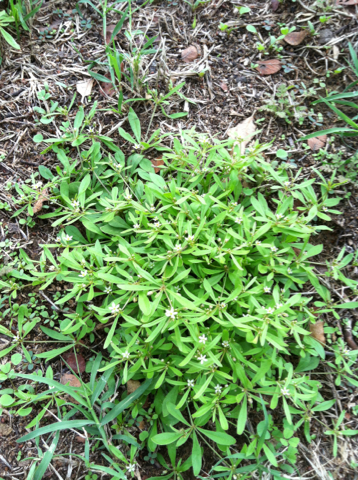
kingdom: Plantae
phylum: Tracheophyta
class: Magnoliopsida
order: Caryophyllales
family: Molluginaceae
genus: Mollugo
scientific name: Mollugo verticillata
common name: Green carpetweed
